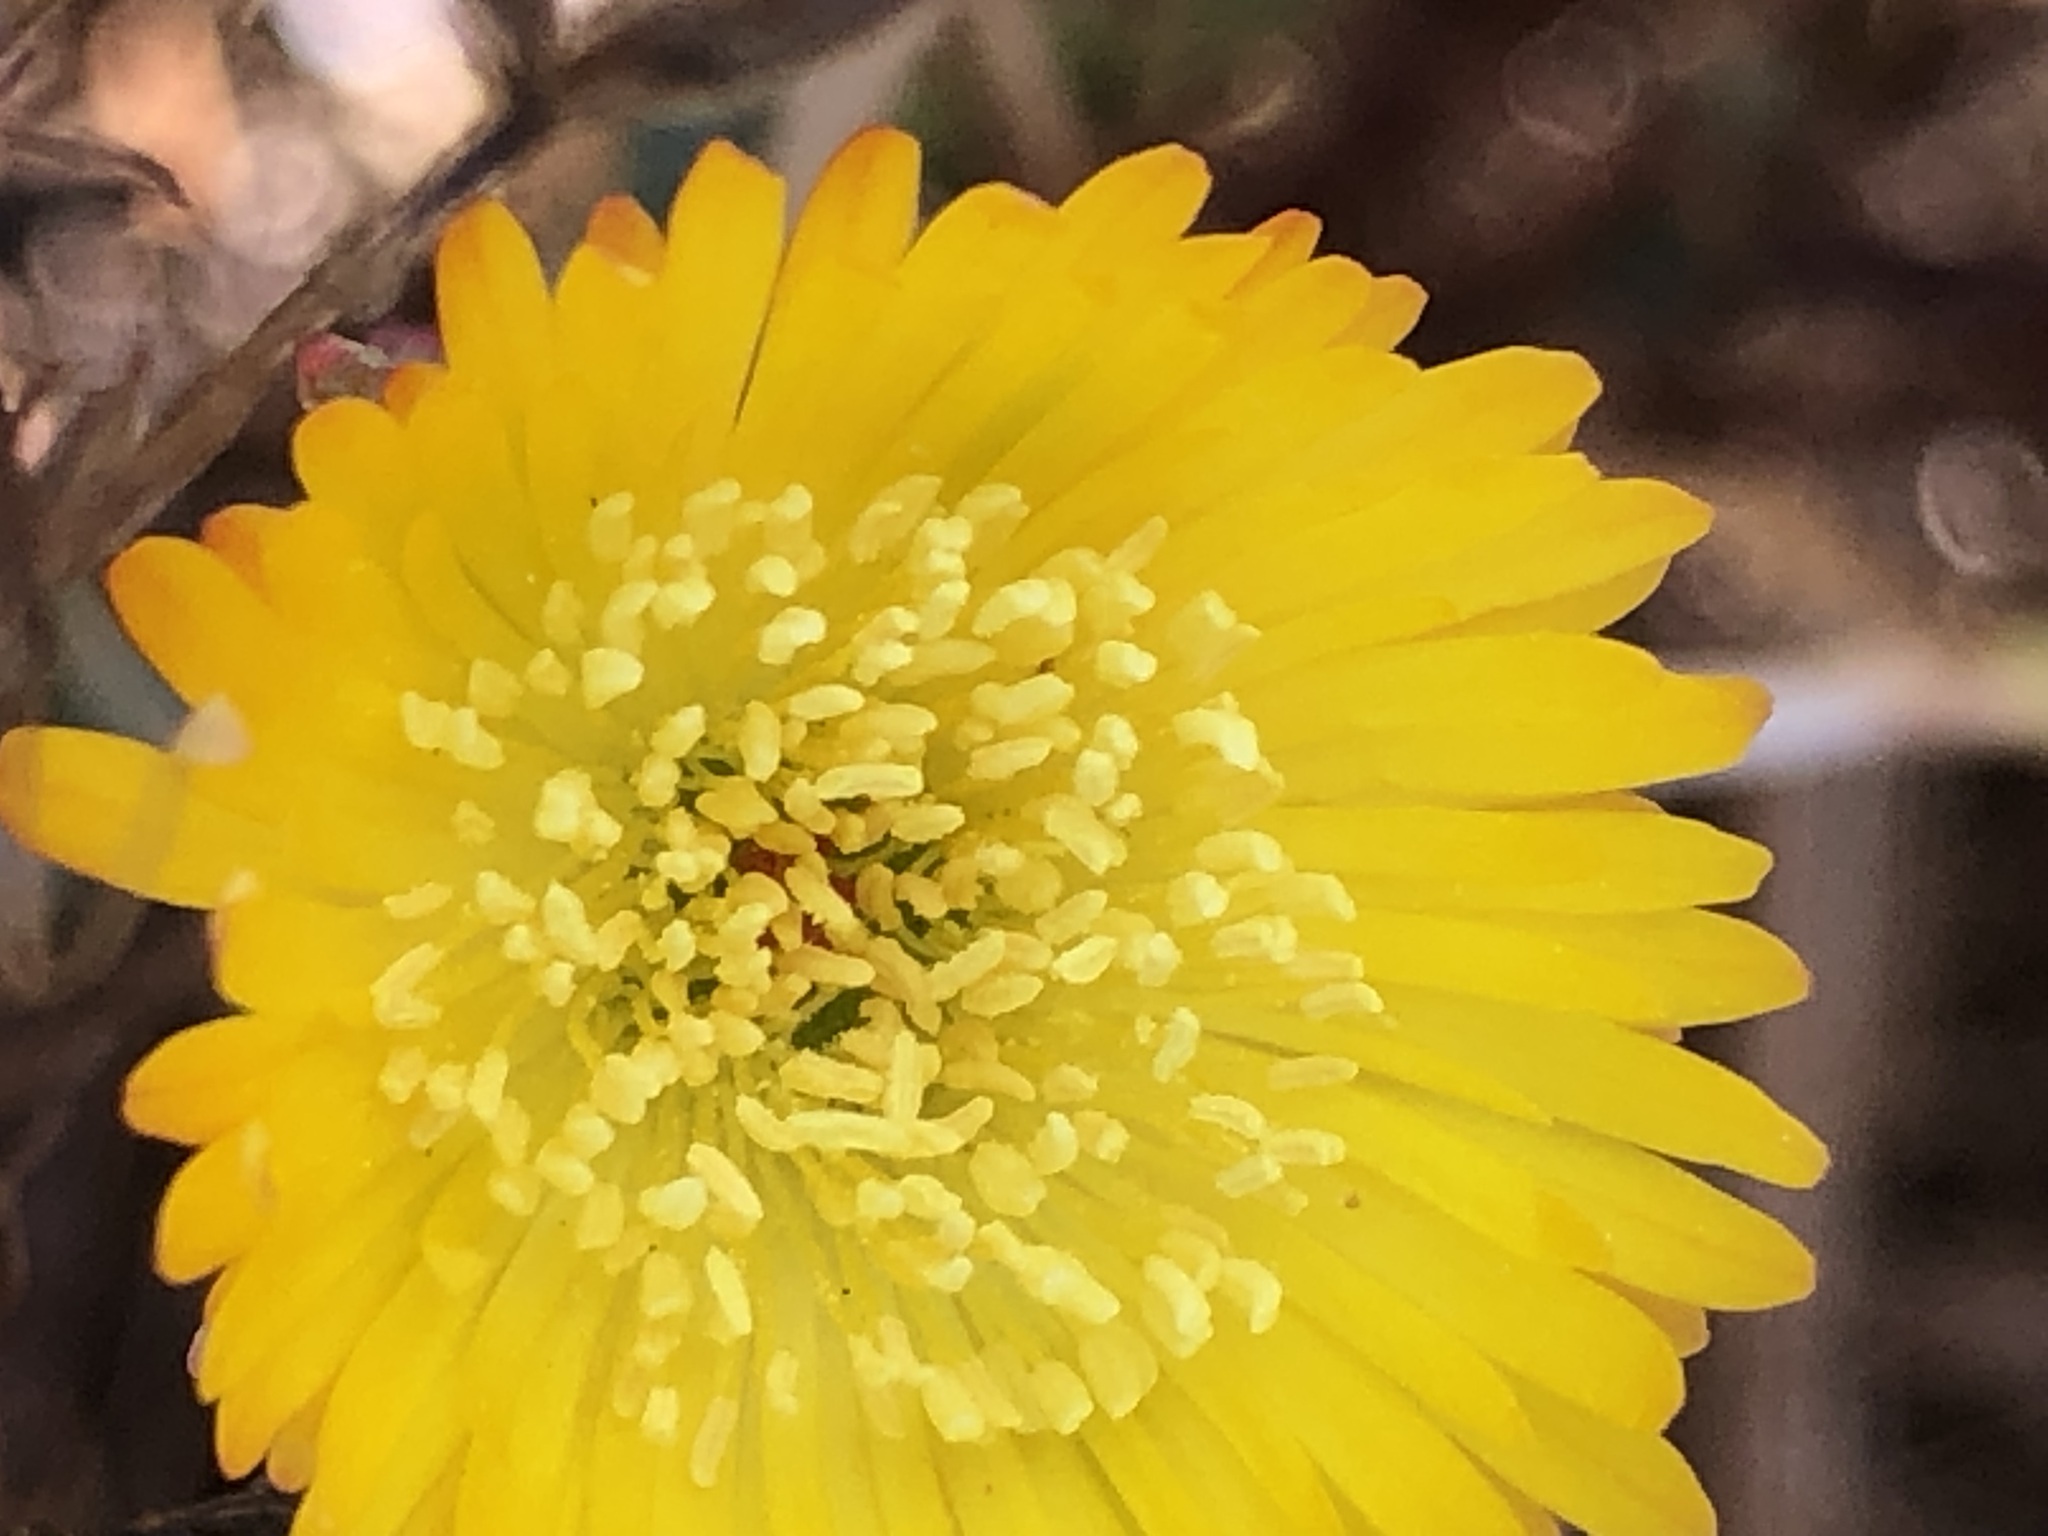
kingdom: Plantae
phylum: Tracheophyta
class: Magnoliopsida
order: Caryophyllales
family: Aizoaceae
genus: Lampranthus
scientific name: Lampranthus glaucus
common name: Noonflower
